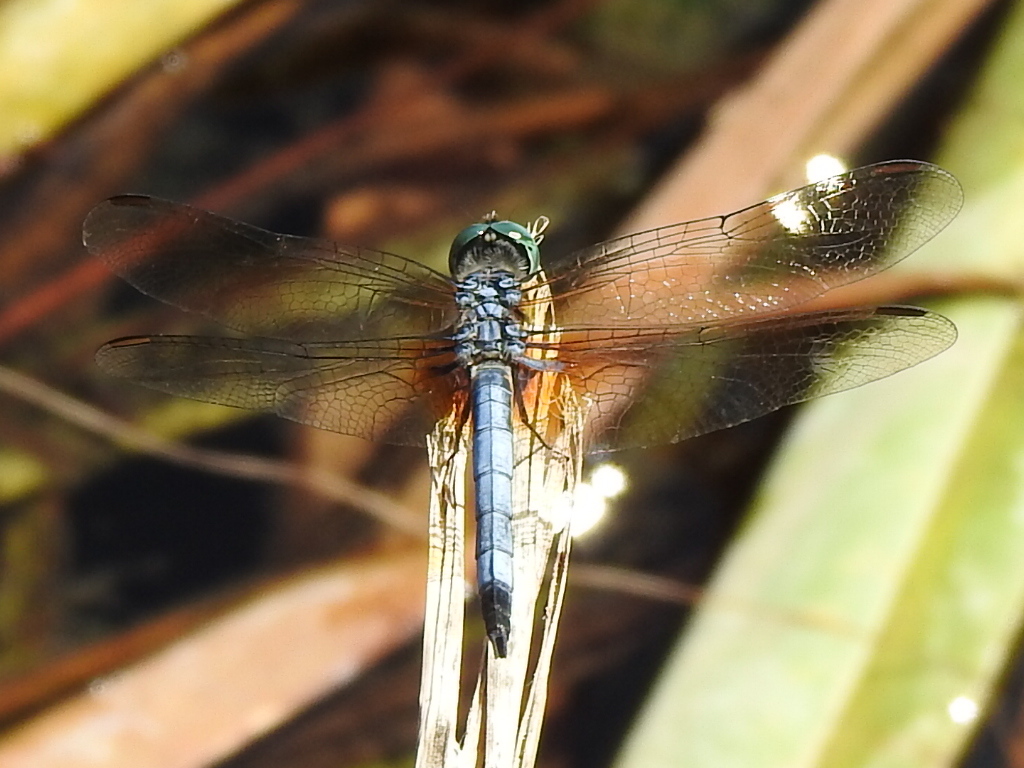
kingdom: Animalia
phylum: Arthropoda
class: Insecta
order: Odonata
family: Libellulidae
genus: Pachydiplax
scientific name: Pachydiplax longipennis
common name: Blue dasher
